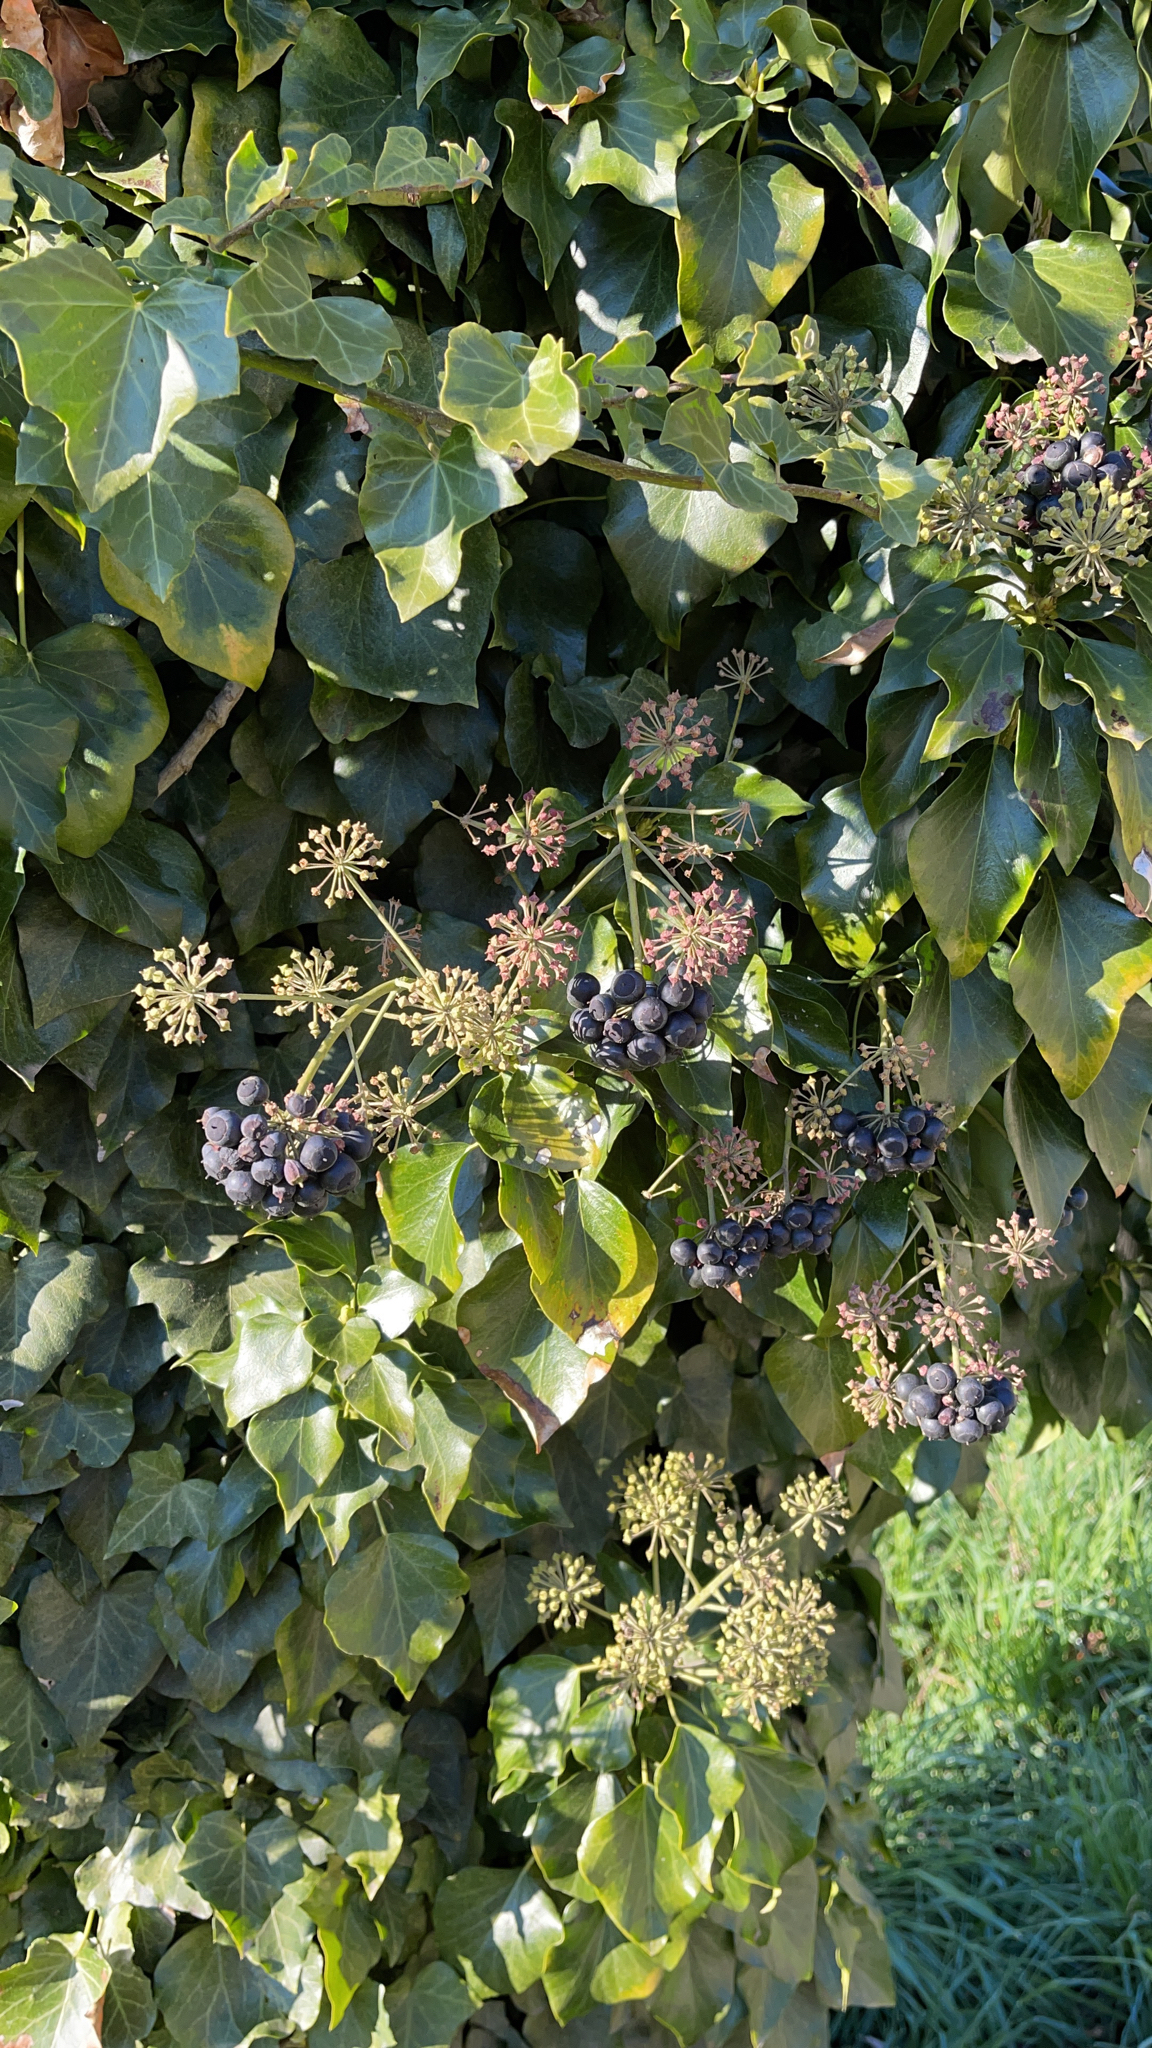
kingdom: Plantae
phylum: Tracheophyta
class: Magnoliopsida
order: Apiales
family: Araliaceae
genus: Hedera
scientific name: Hedera helix
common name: Ivy
